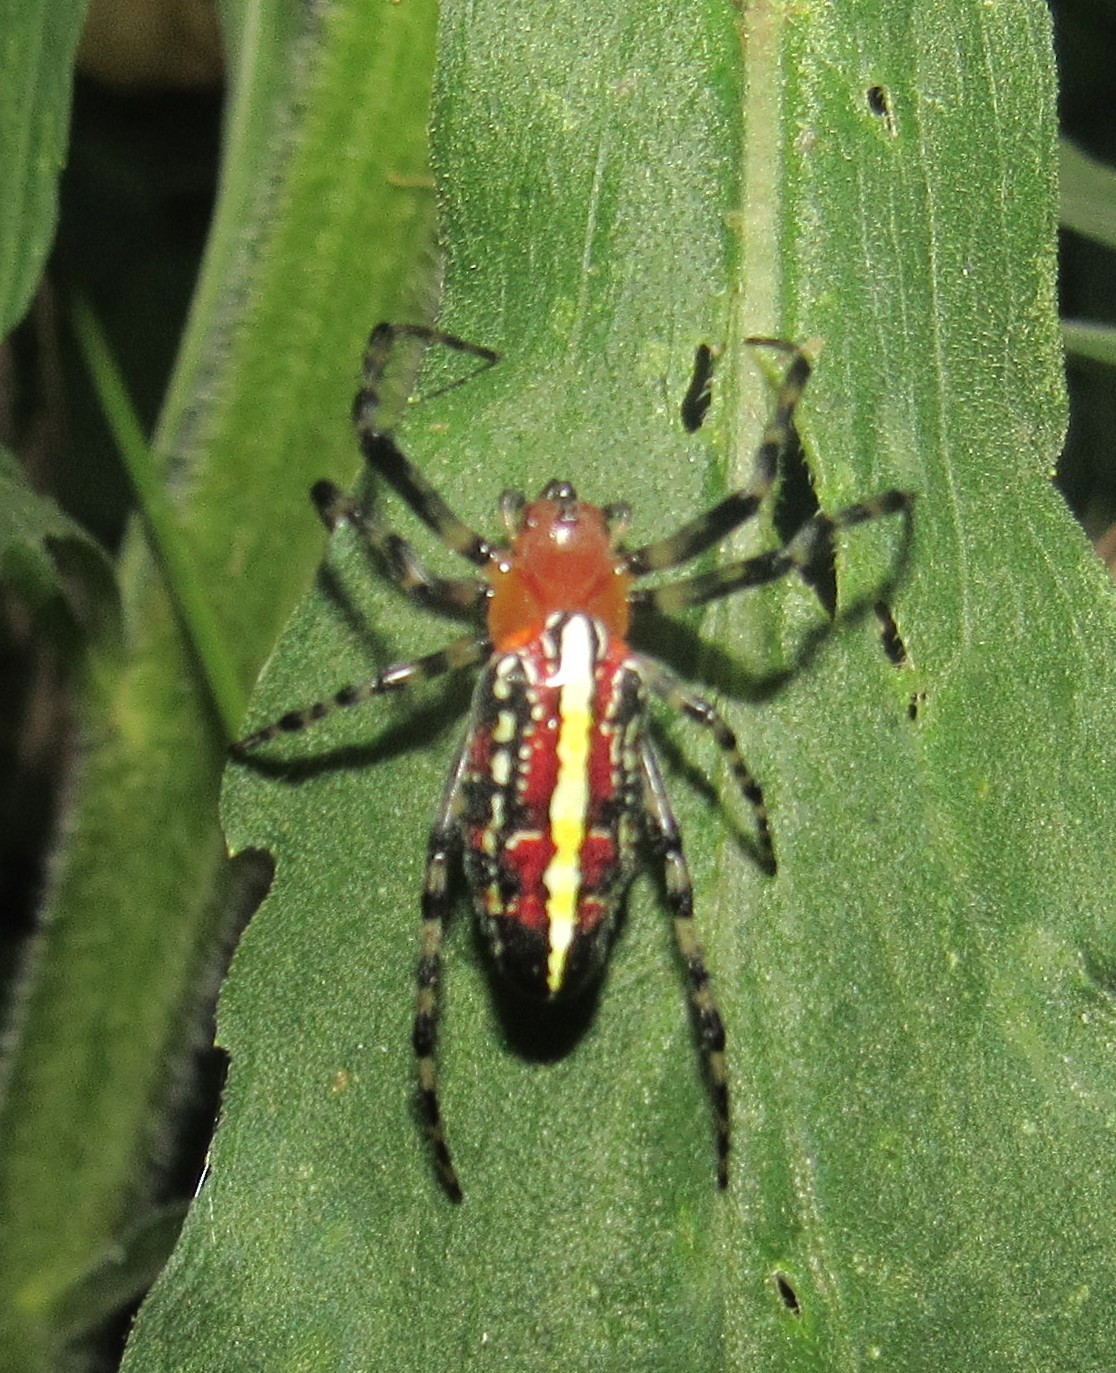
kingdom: Animalia
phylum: Arthropoda
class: Arachnida
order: Araneae
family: Araneidae
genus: Alpaida
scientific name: Alpaida grayi
